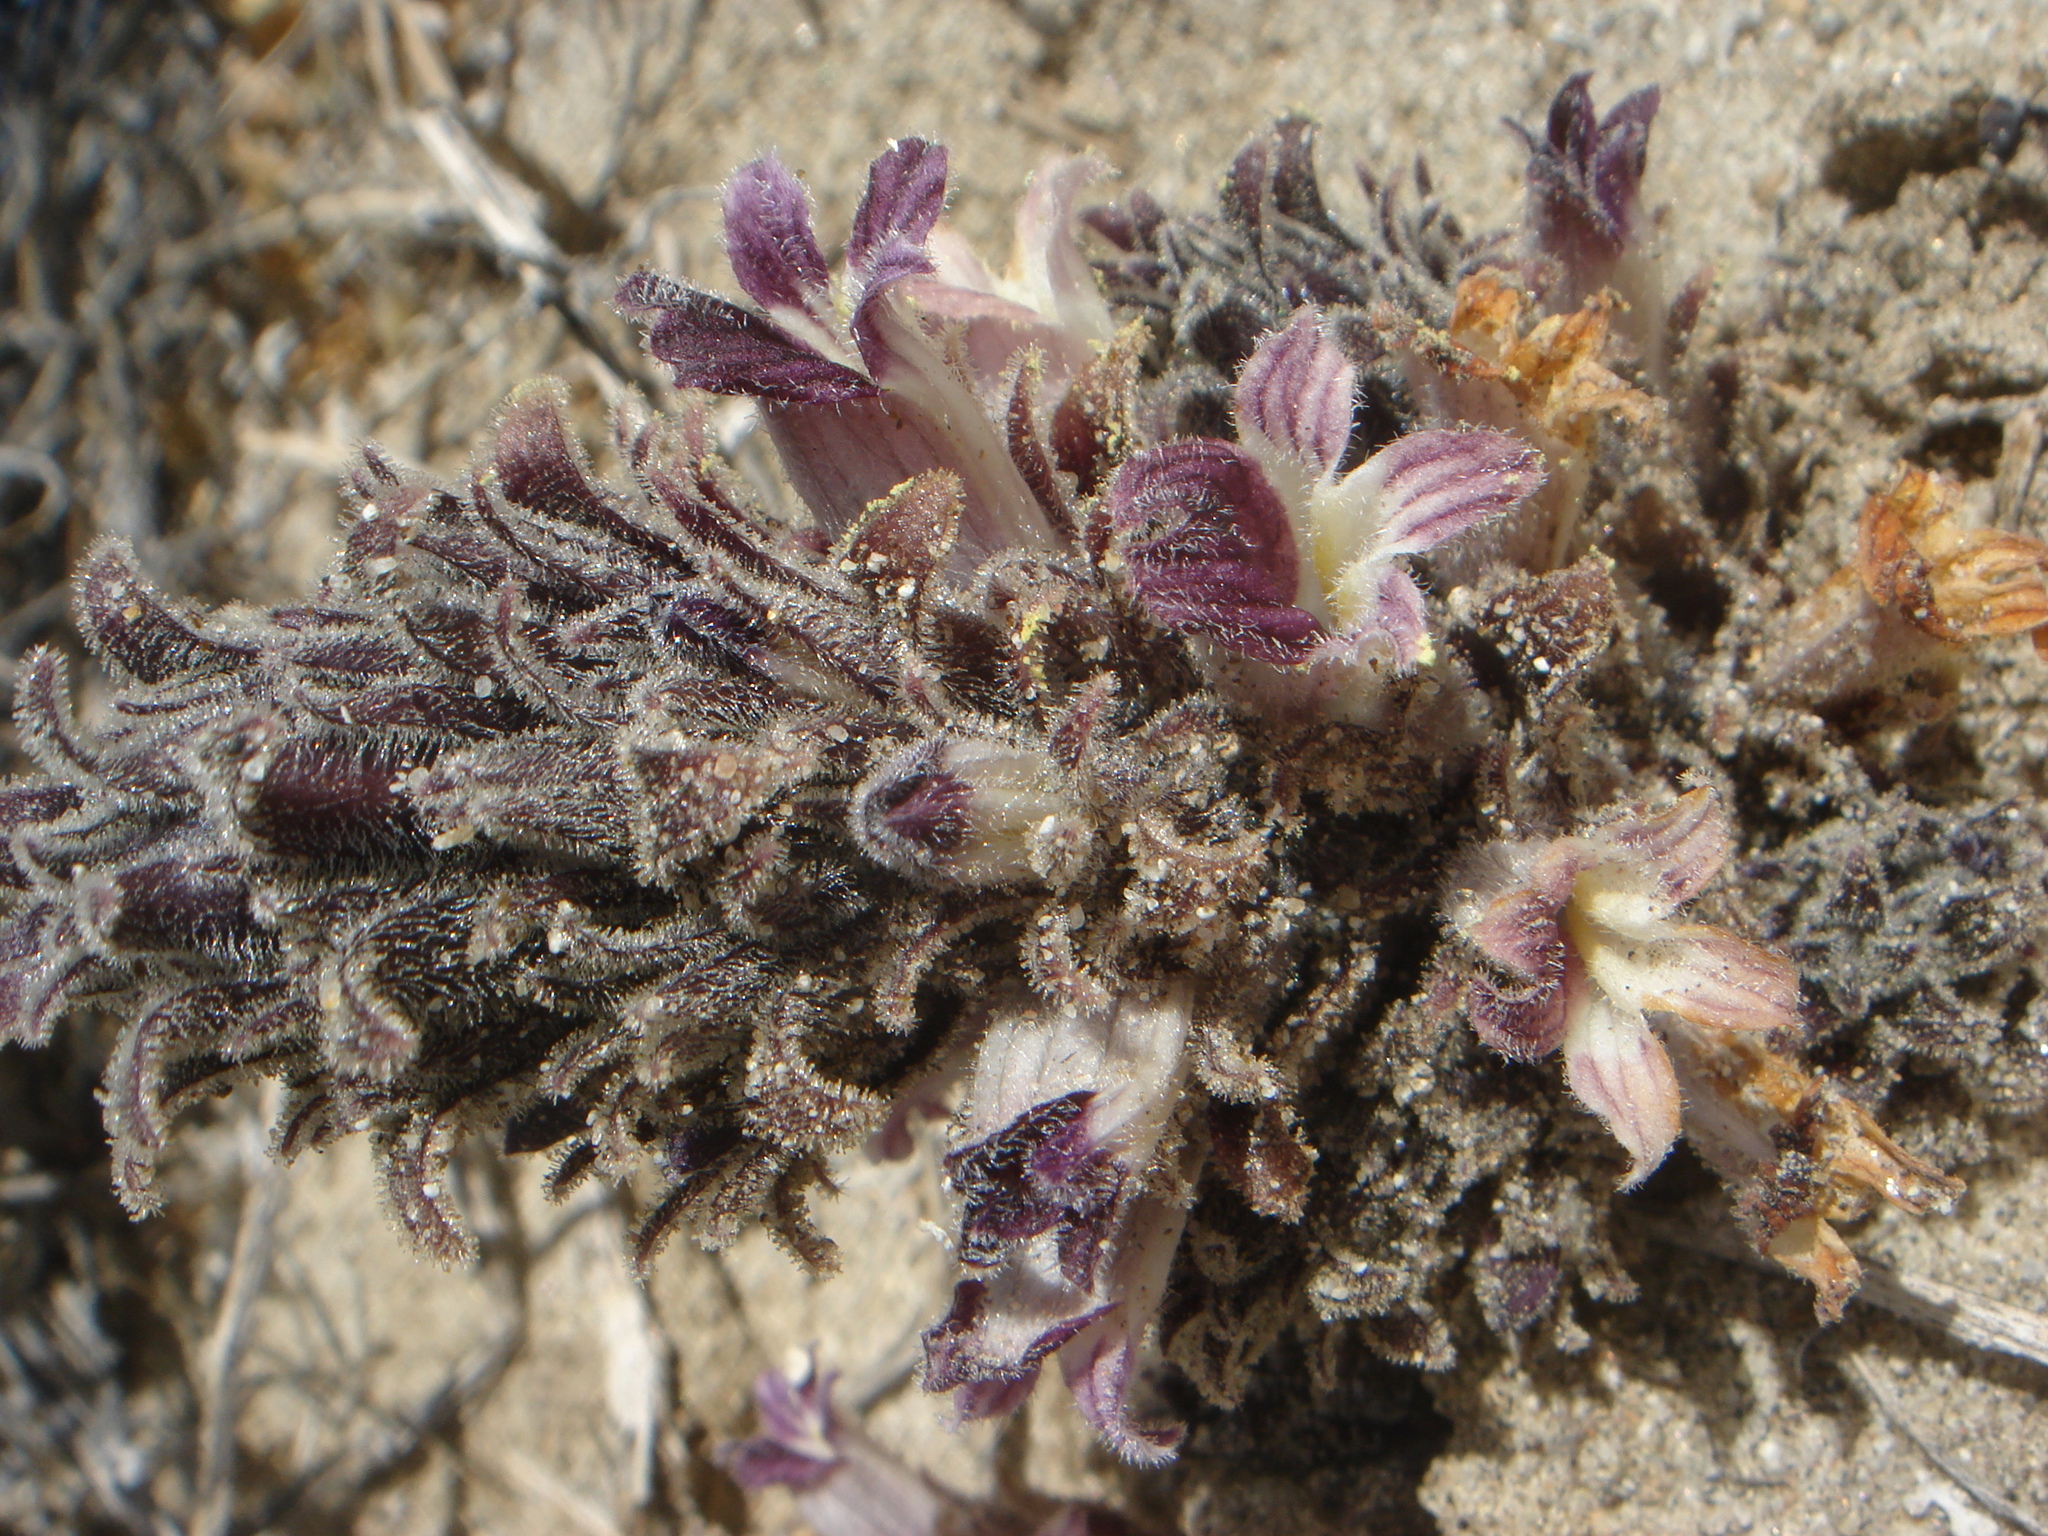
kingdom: Plantae
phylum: Tracheophyta
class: Magnoliopsida
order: Lamiales
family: Orobanchaceae
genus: Aphyllon
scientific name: Aphyllon cooperi
